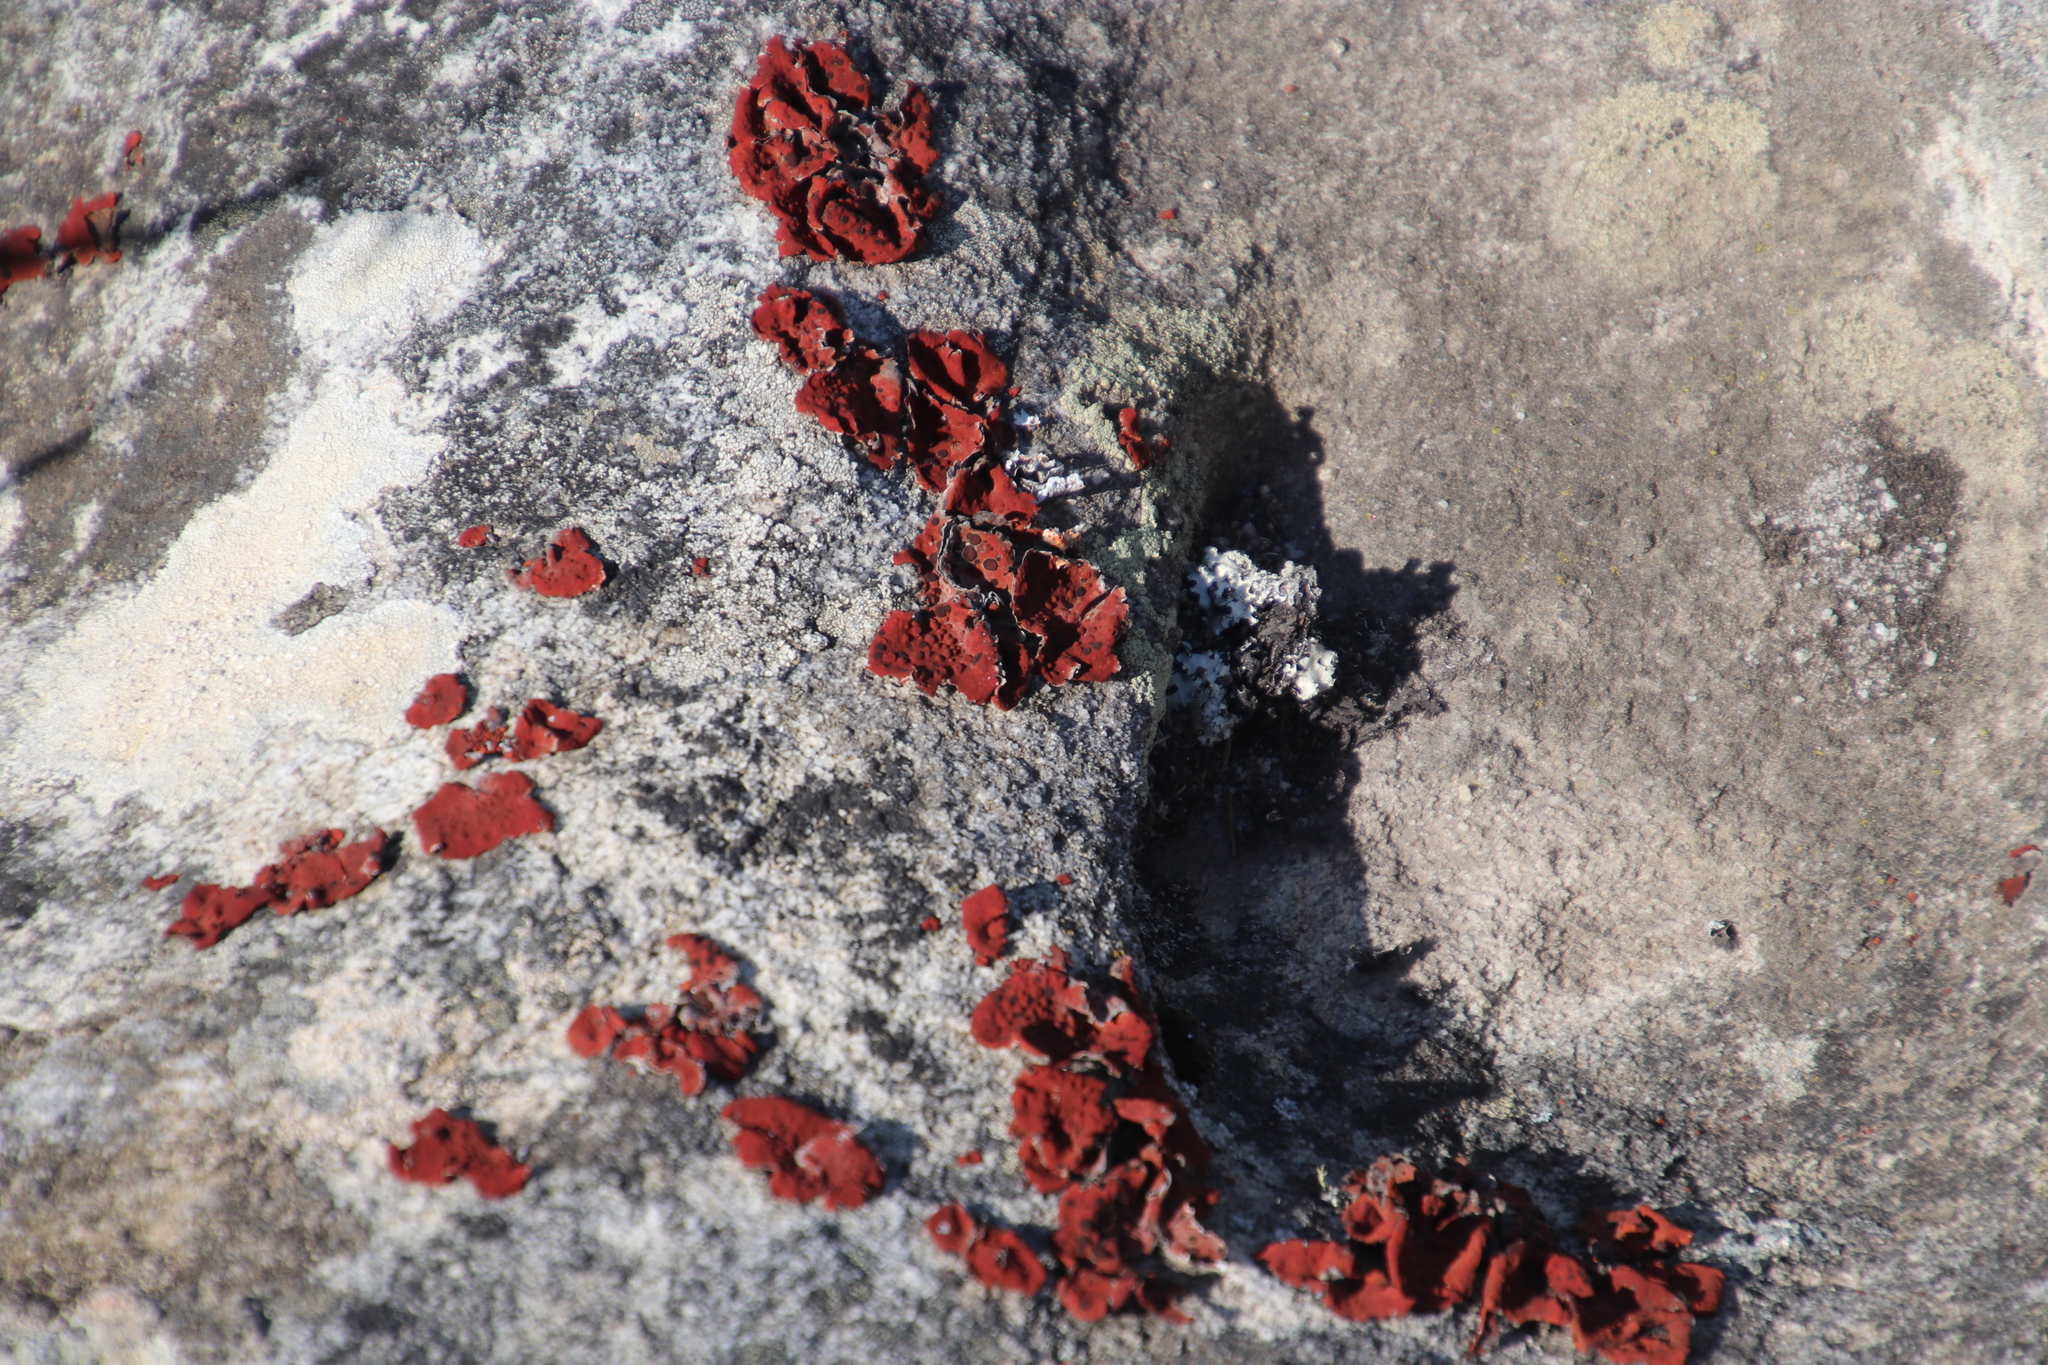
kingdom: Fungi
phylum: Ascomycota
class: Lecanoromycetes
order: Umbilicariales
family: Umbilicariaceae
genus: Lasallia
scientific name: Lasallia rubiginosa
